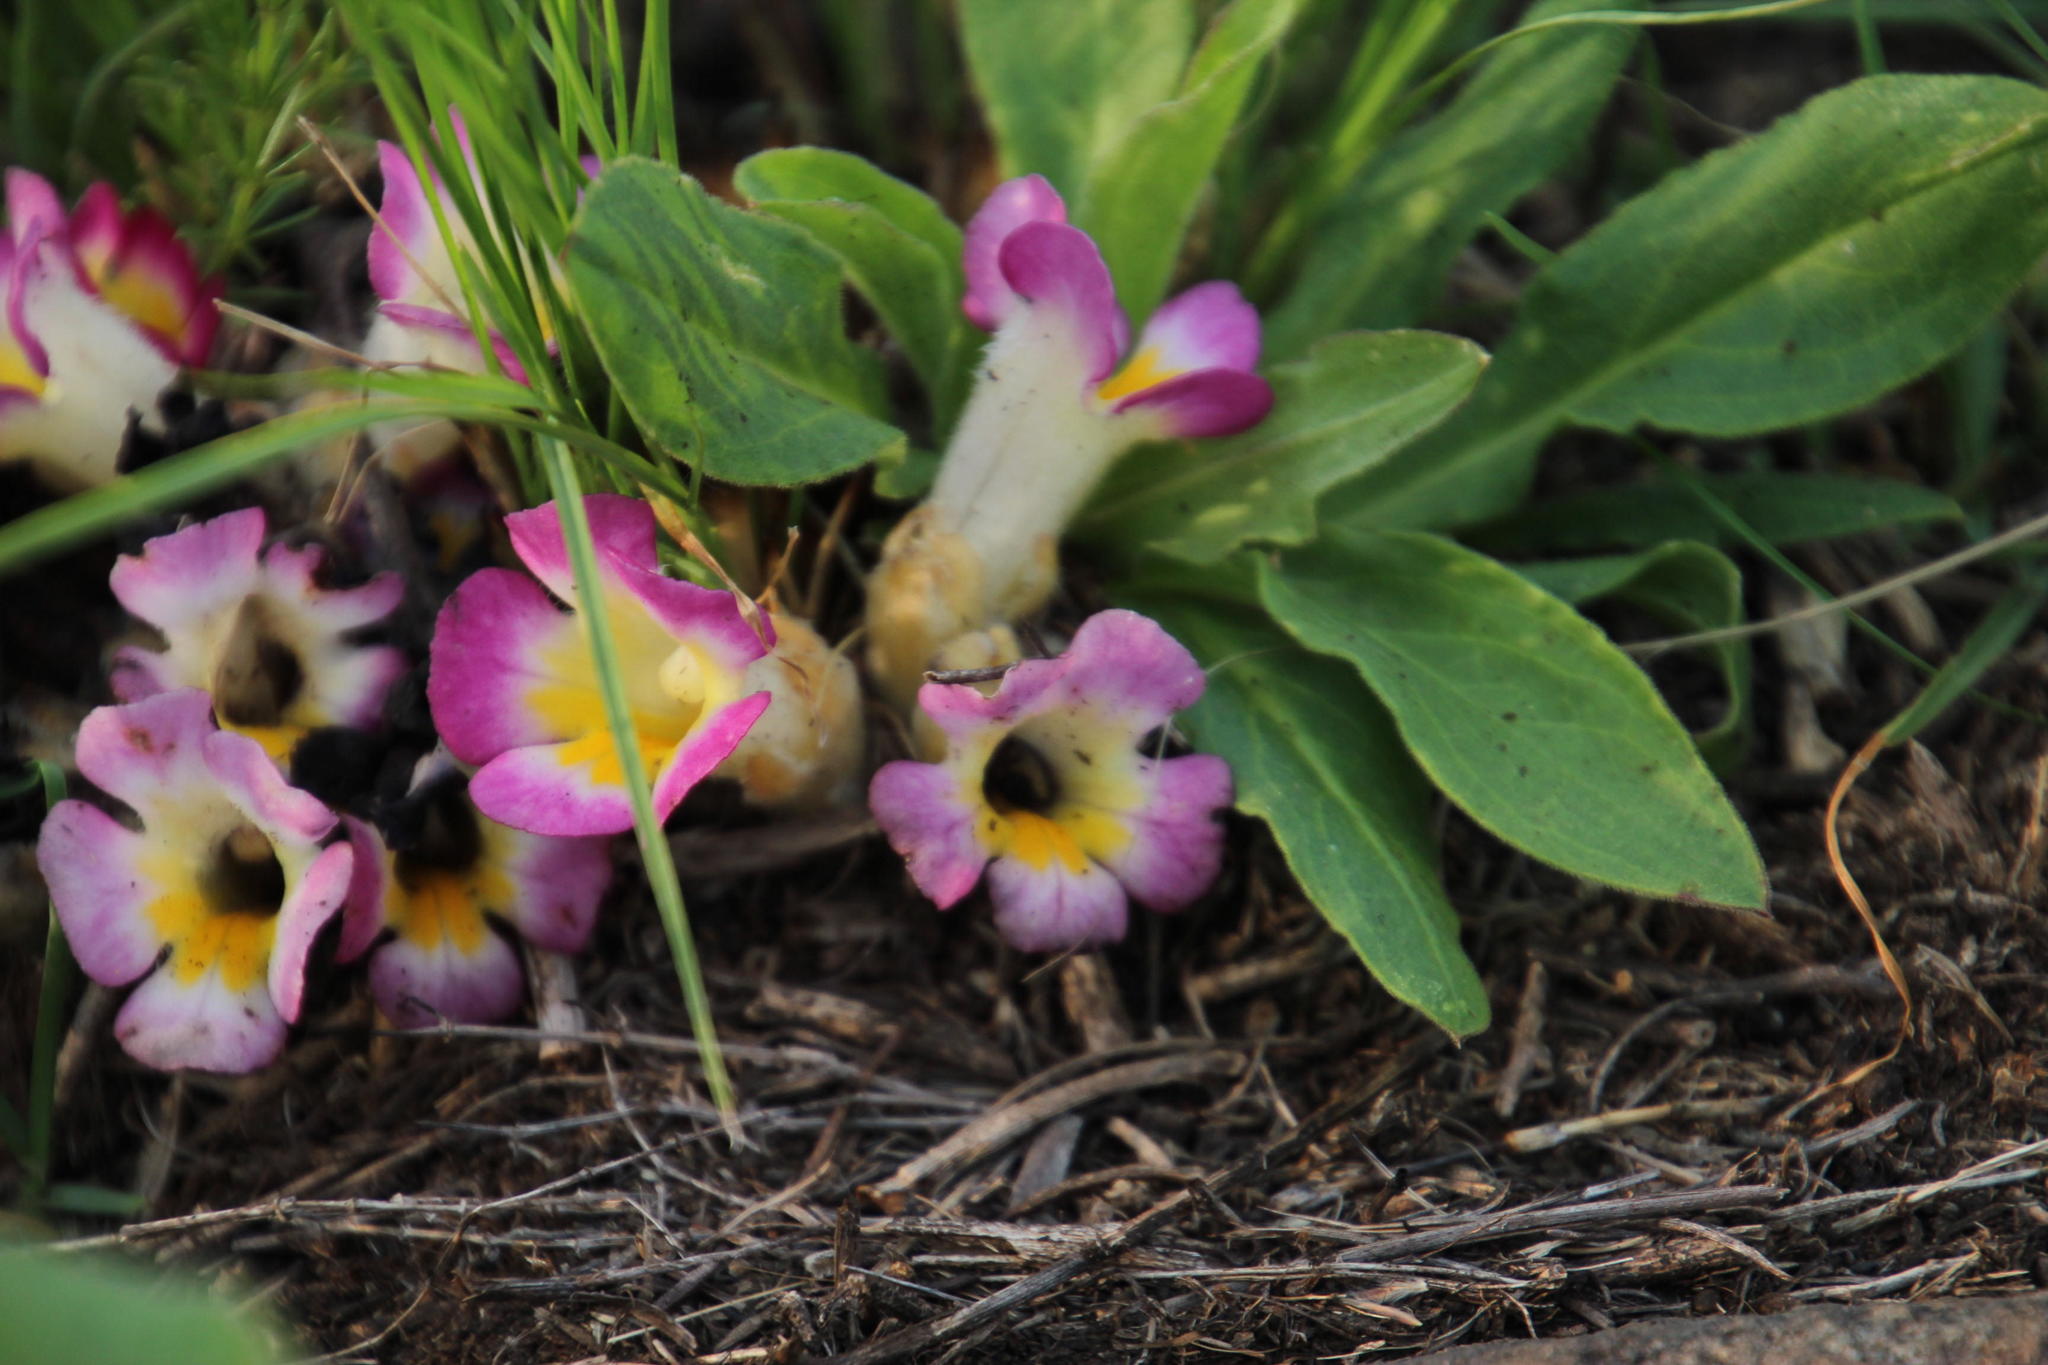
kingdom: Plantae
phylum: Tracheophyta
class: Magnoliopsida
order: Lamiales
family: Orobanchaceae
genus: Harveya
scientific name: Harveya purpurea
